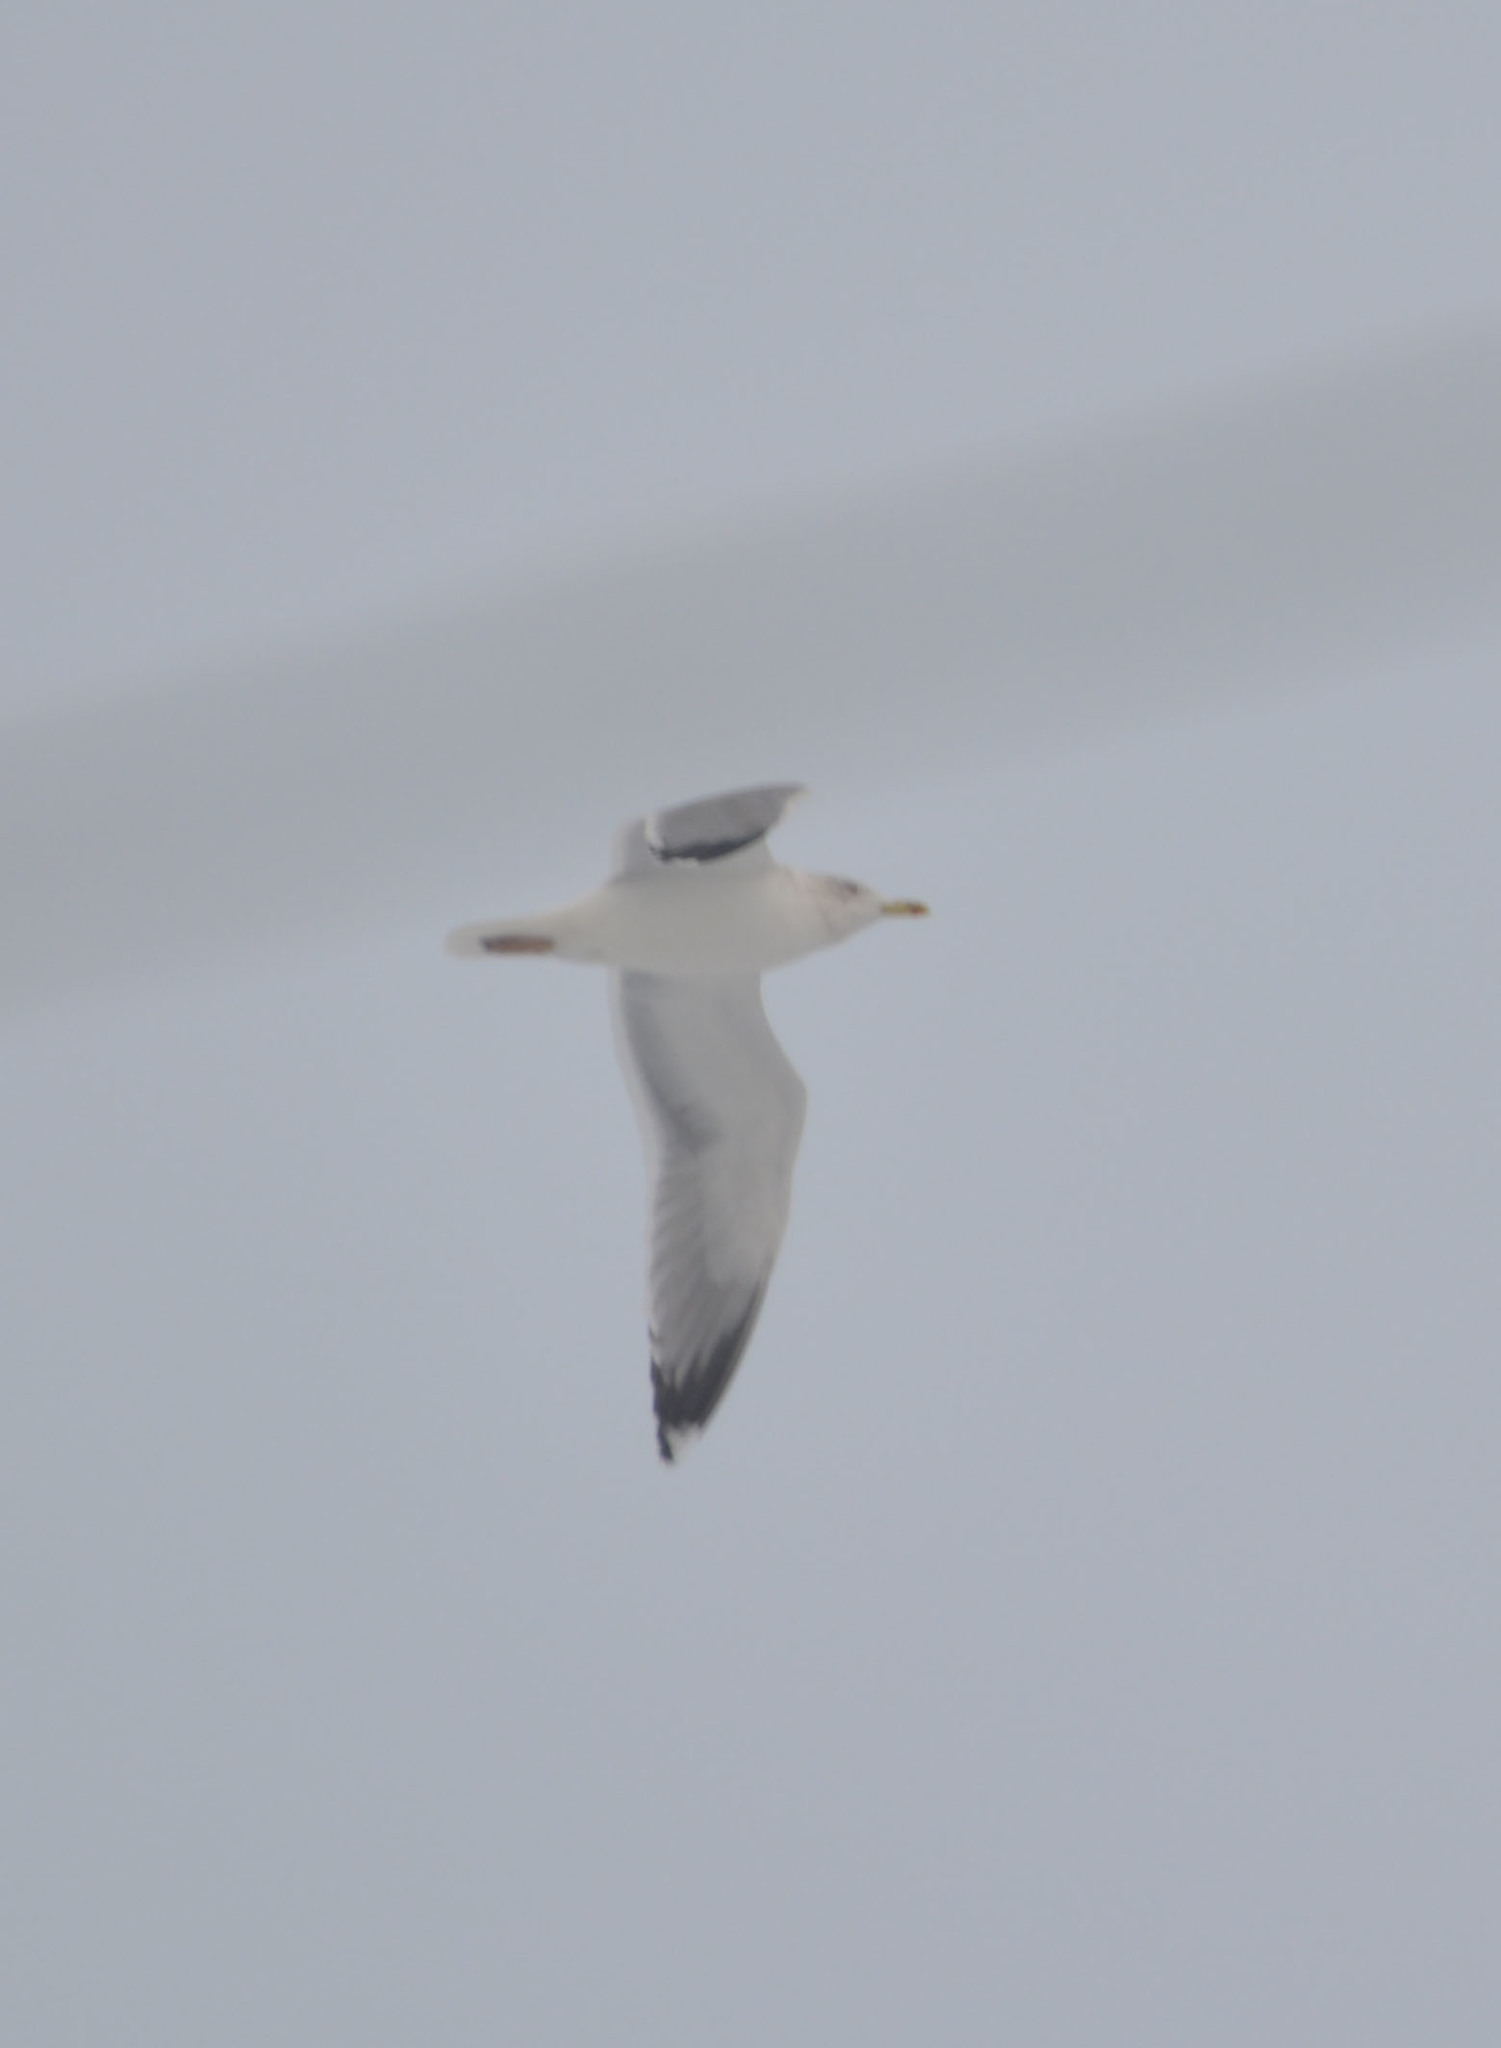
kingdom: Animalia
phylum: Chordata
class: Aves
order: Charadriiformes
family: Laridae
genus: Larus
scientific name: Larus argentatus
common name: Herring gull
